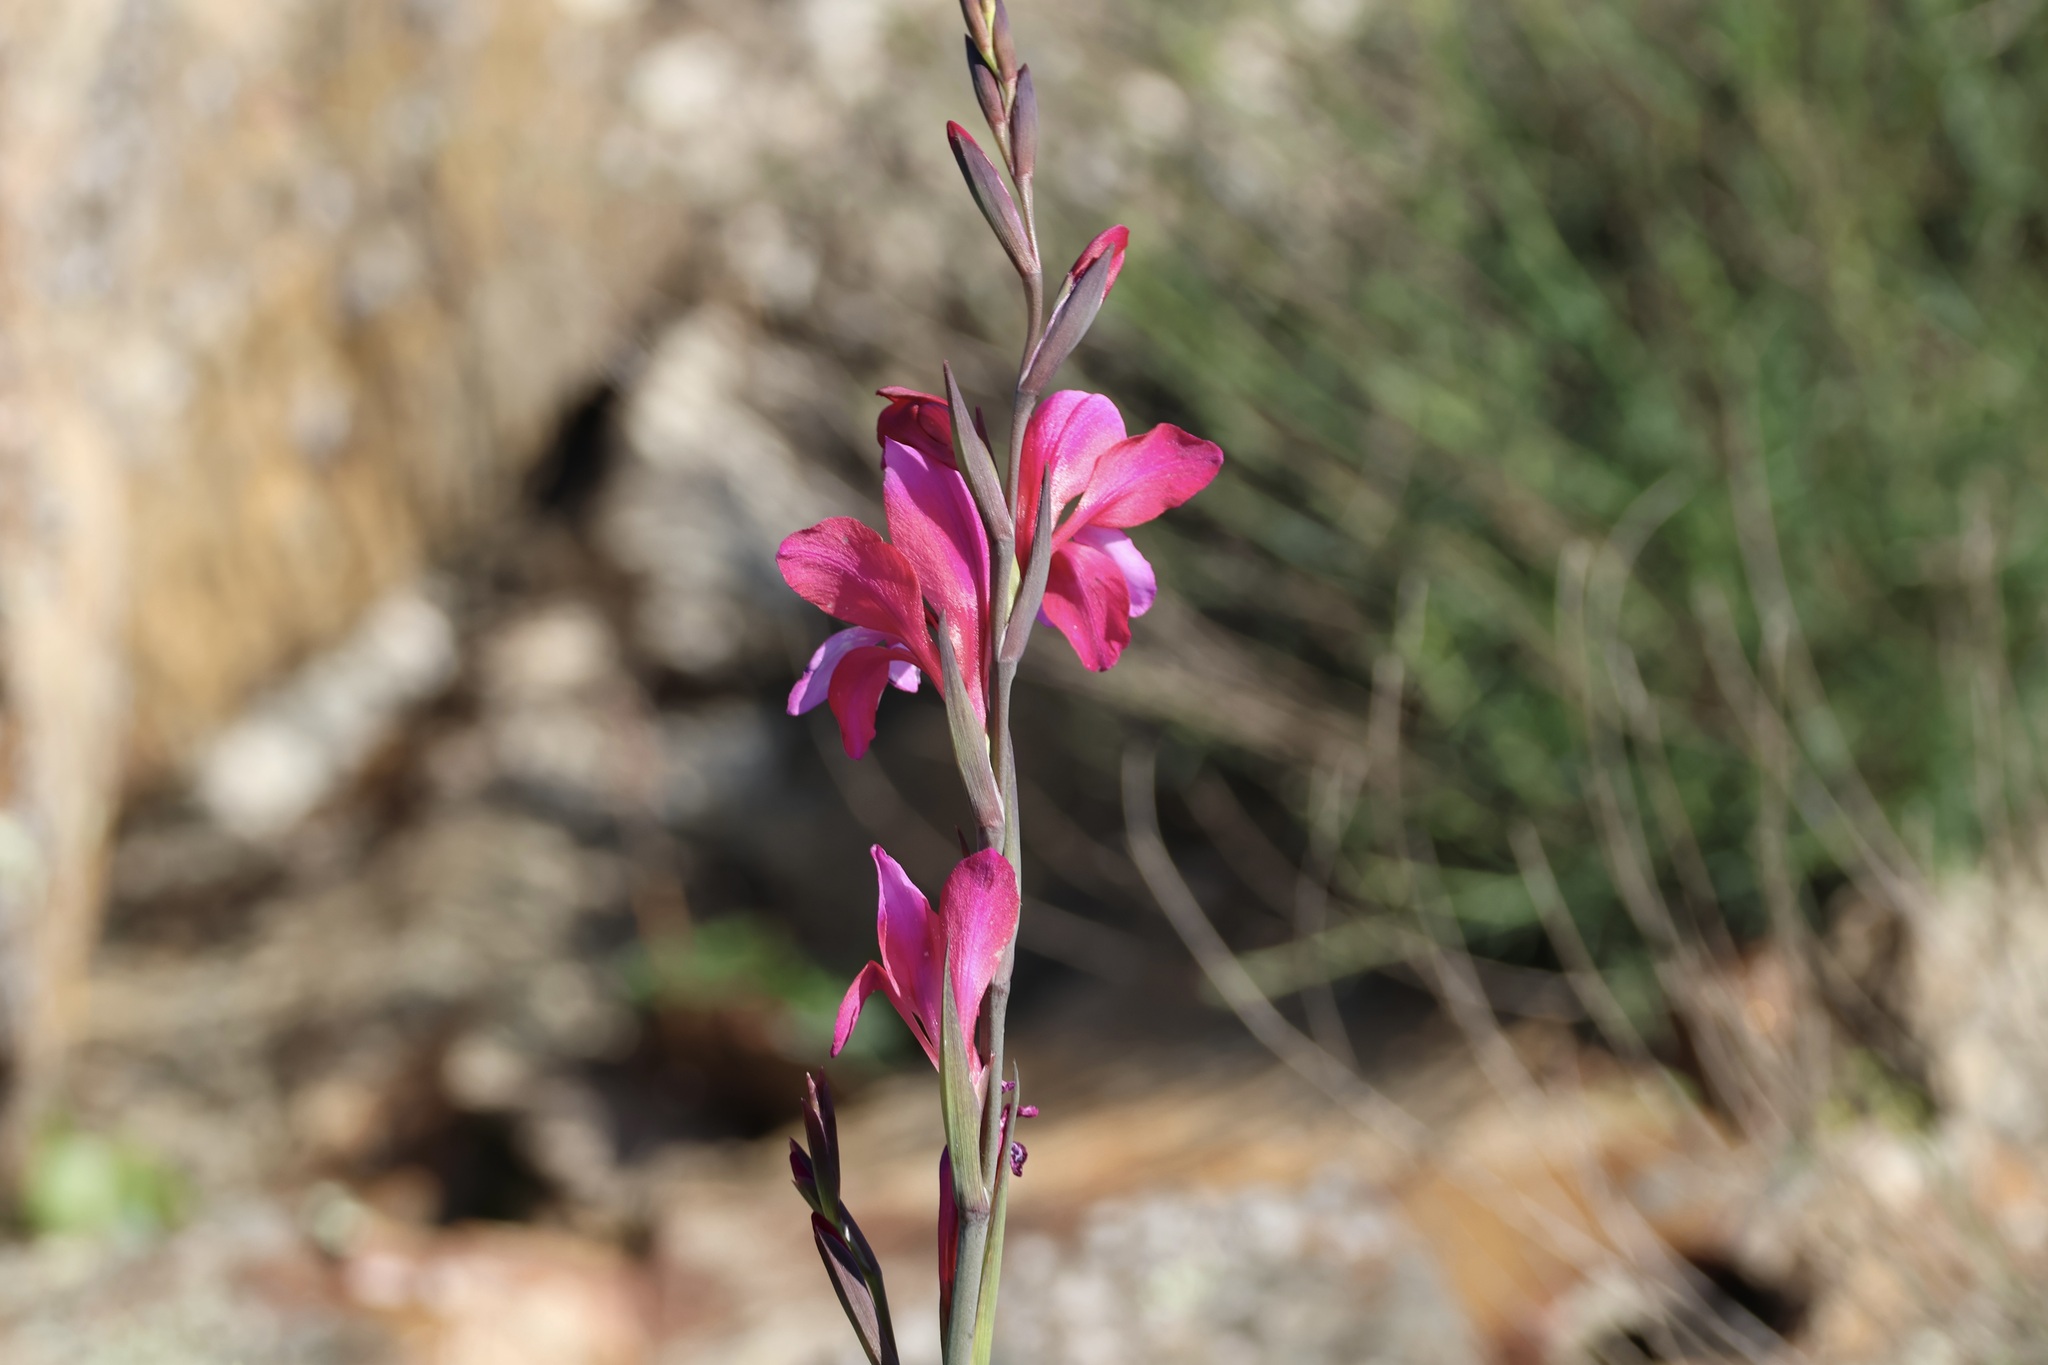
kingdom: Plantae
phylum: Tracheophyta
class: Liliopsida
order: Asparagales
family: Iridaceae
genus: Gladiolus
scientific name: Gladiolus illyricus
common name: Wild gladiolus
